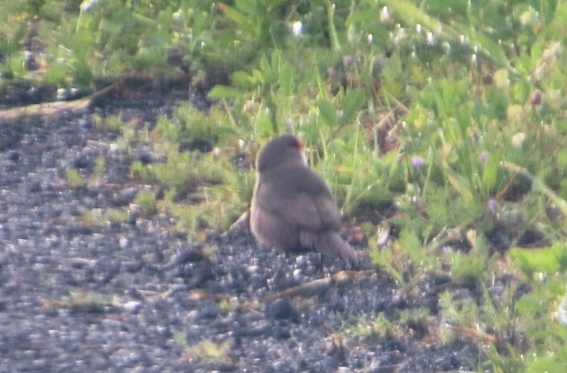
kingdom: Animalia
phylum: Chordata
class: Aves
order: Passeriformes
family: Estrildidae
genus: Estrilda
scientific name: Estrilda astrild
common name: Common waxbill
